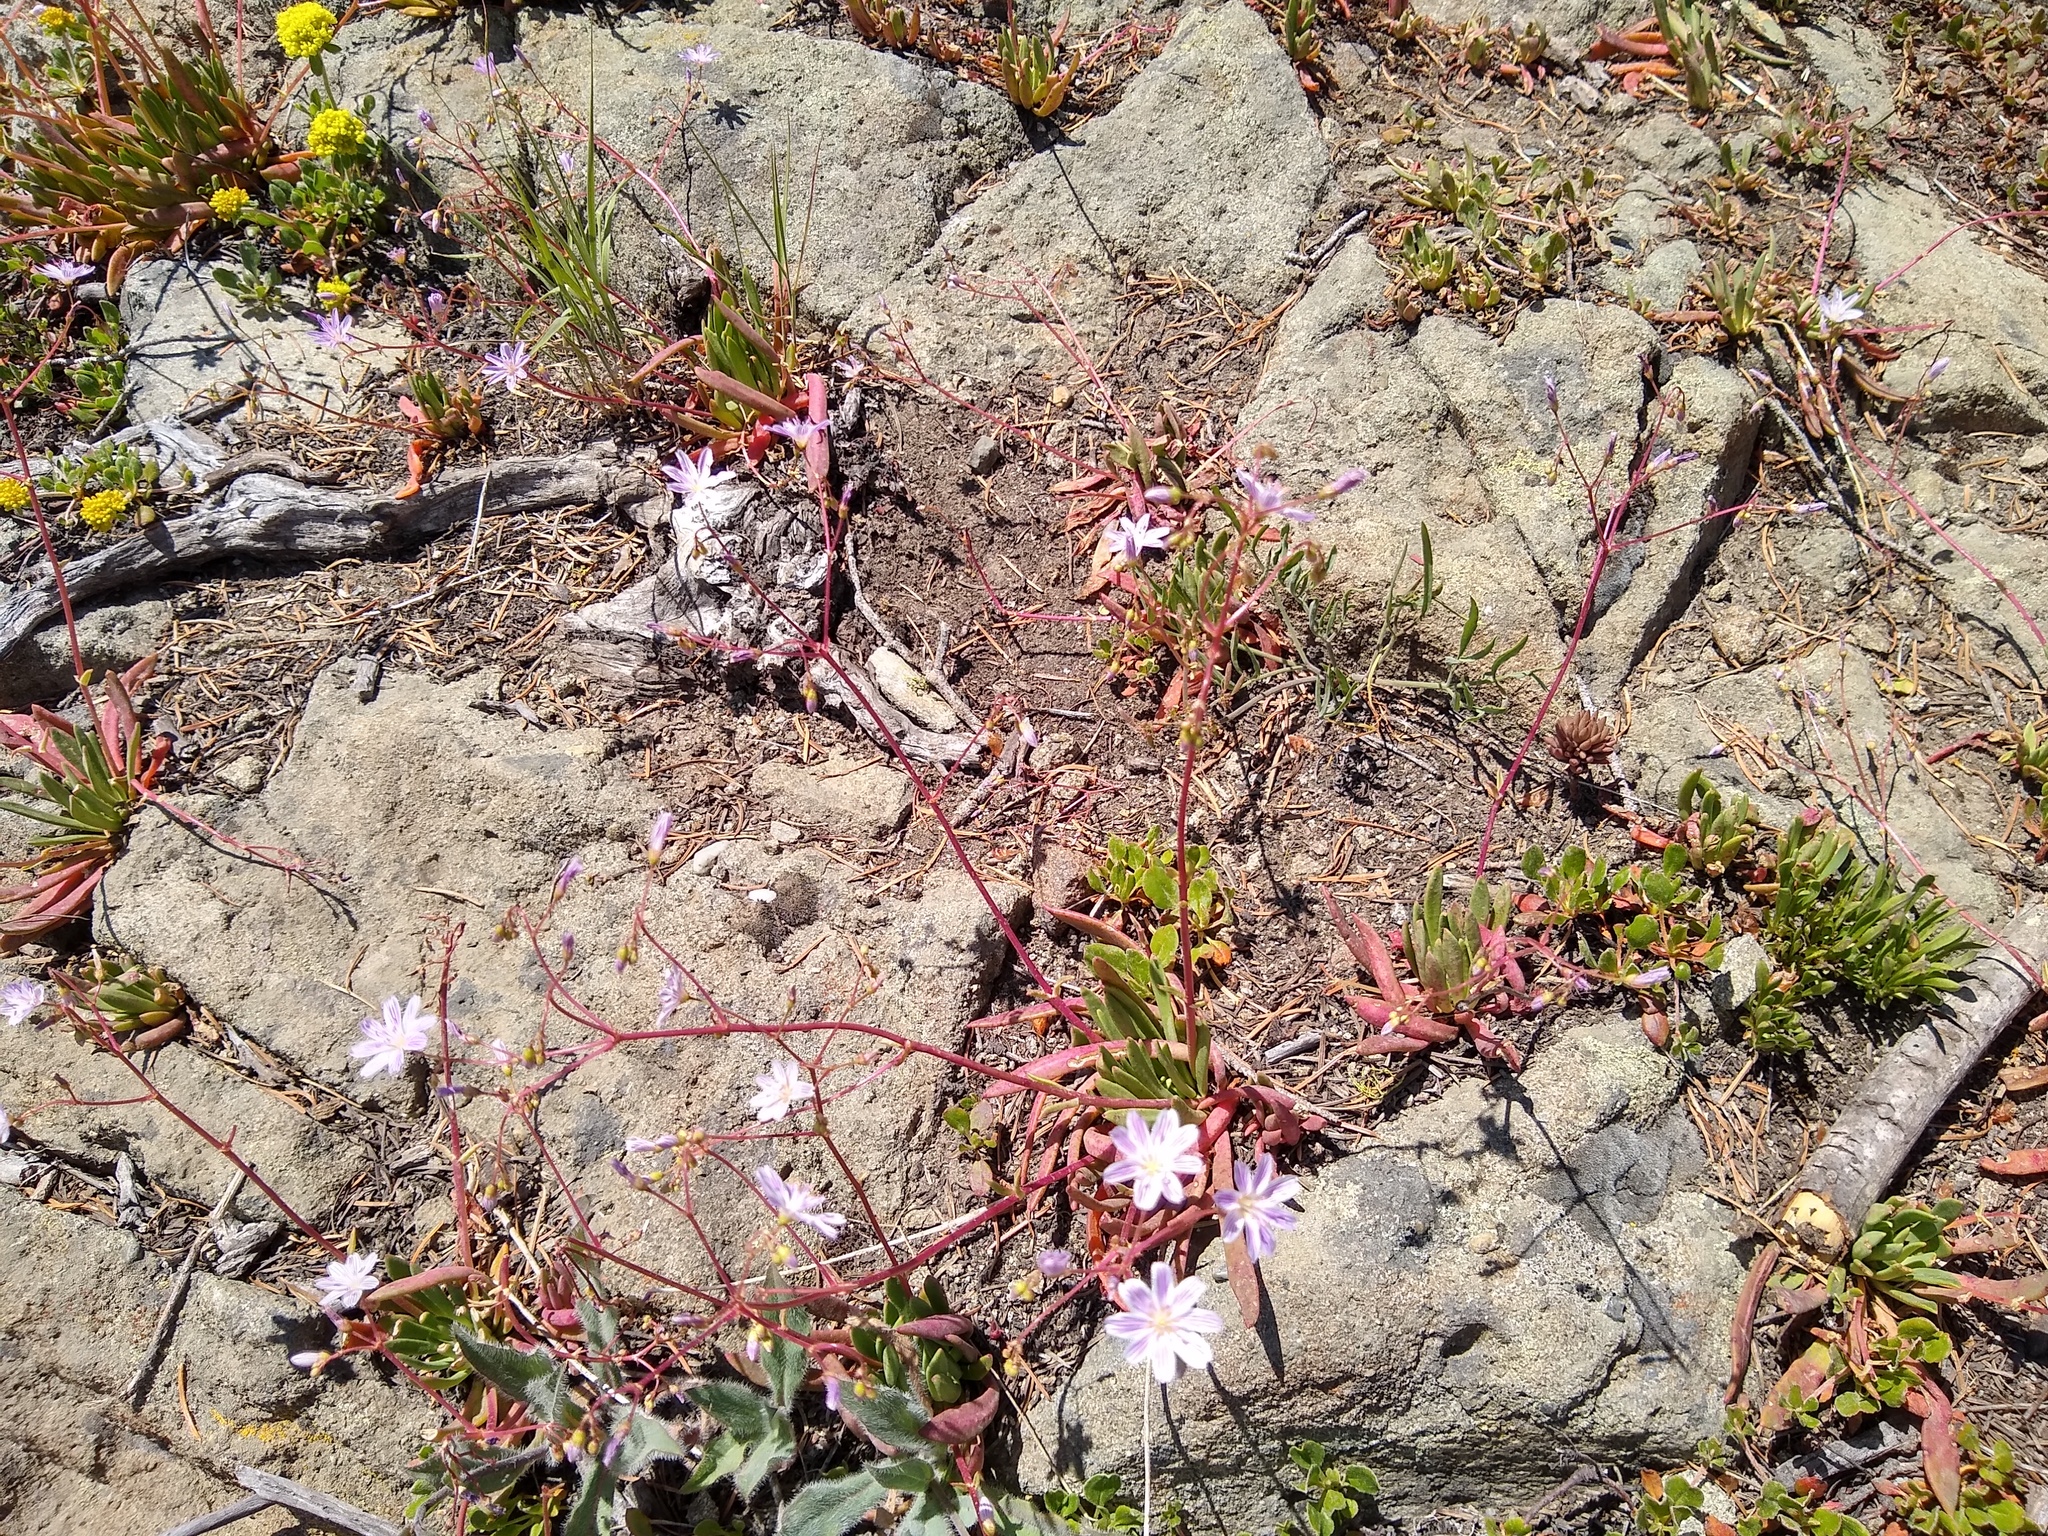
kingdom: Plantae
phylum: Tracheophyta
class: Magnoliopsida
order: Caryophyllales
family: Montiaceae
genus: Lewisia
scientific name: Lewisia columbiana
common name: Columbia lewisia
